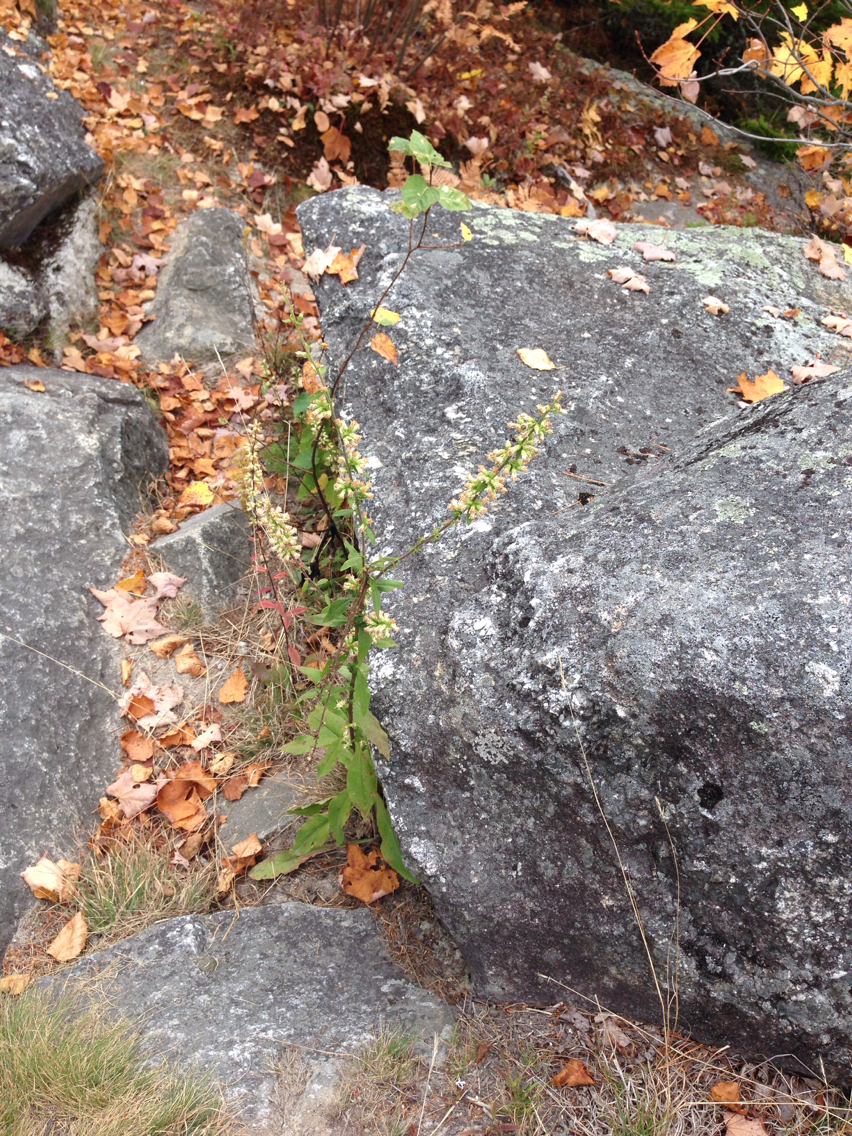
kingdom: Plantae
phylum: Tracheophyta
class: Magnoliopsida
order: Asterales
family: Asteraceae
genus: Solidago
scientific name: Solidago bicolor
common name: Silverrod
